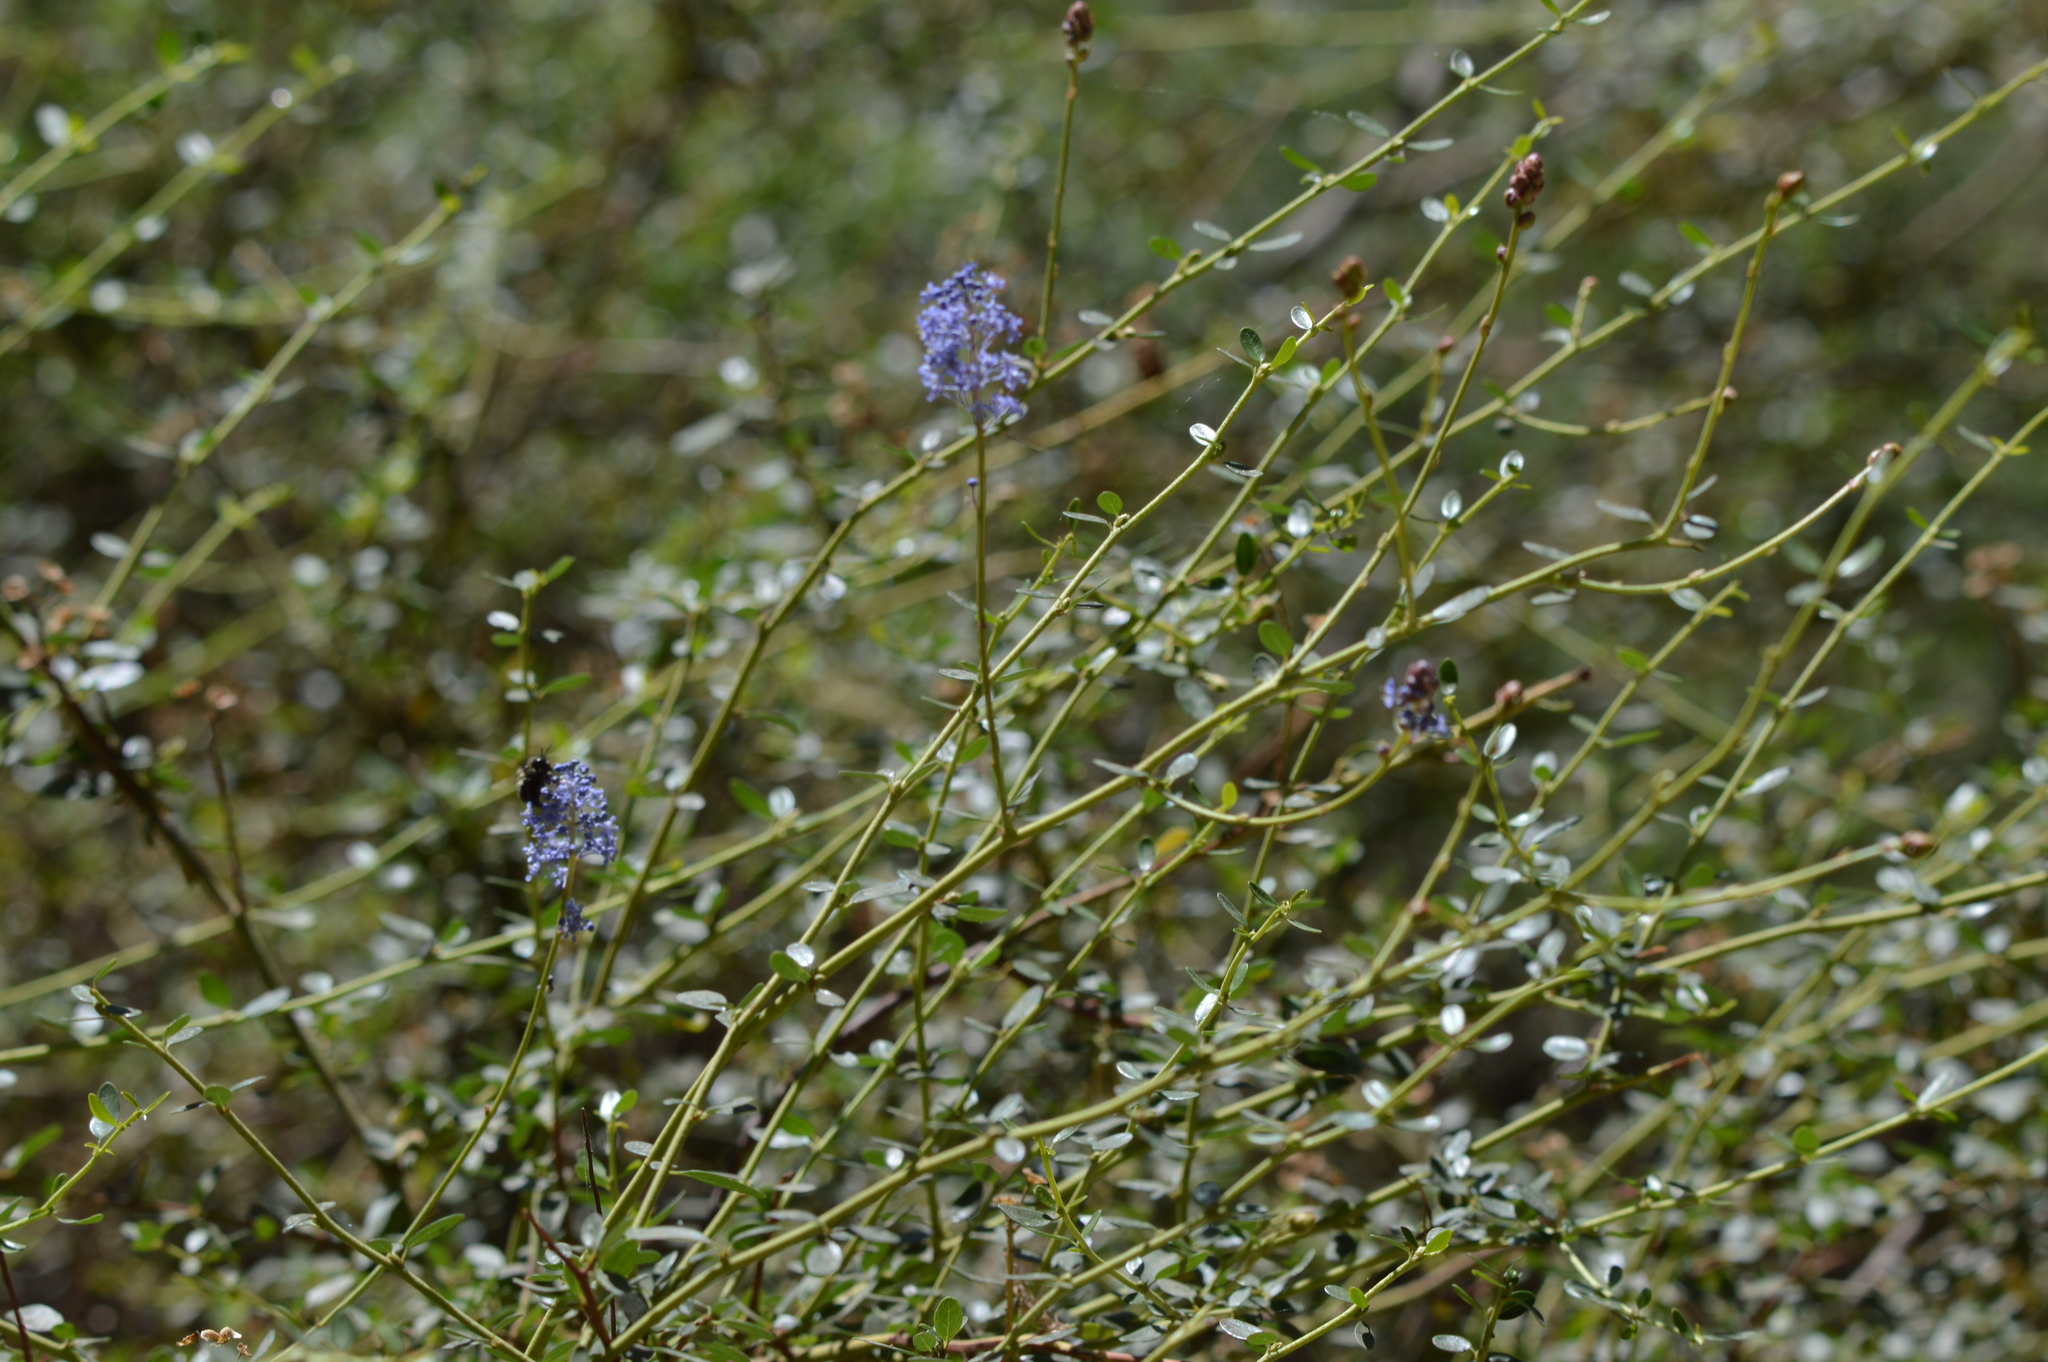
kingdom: Plantae
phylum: Tracheophyta
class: Magnoliopsida
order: Rosales
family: Rhamnaceae
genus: Ceanothus
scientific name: Ceanothus parvifolius
